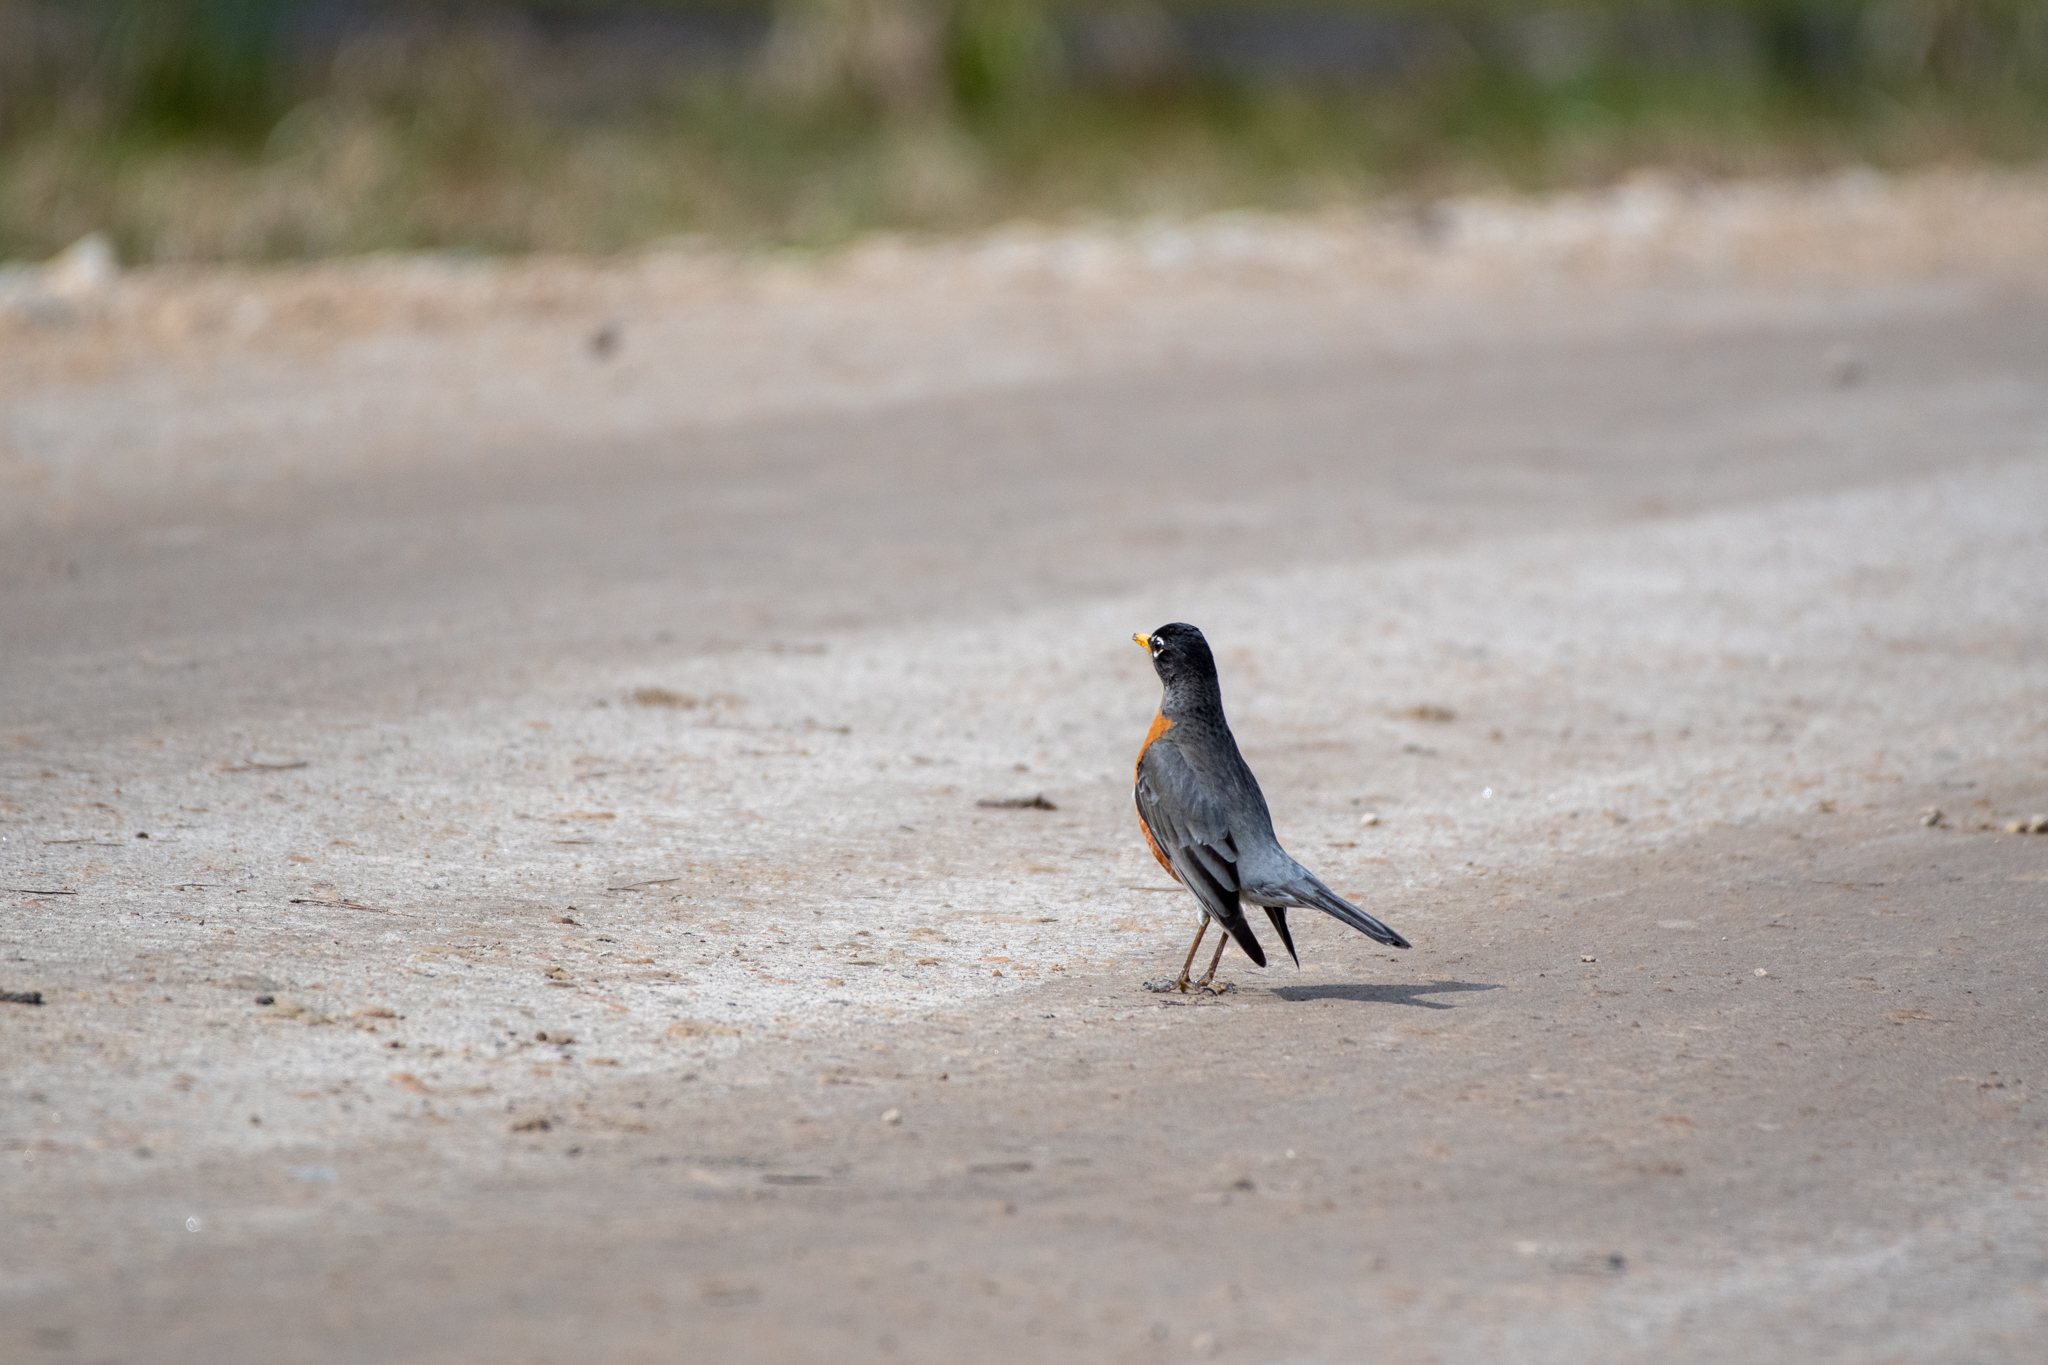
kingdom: Animalia
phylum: Chordata
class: Aves
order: Passeriformes
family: Turdidae
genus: Turdus
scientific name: Turdus migratorius
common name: American robin
